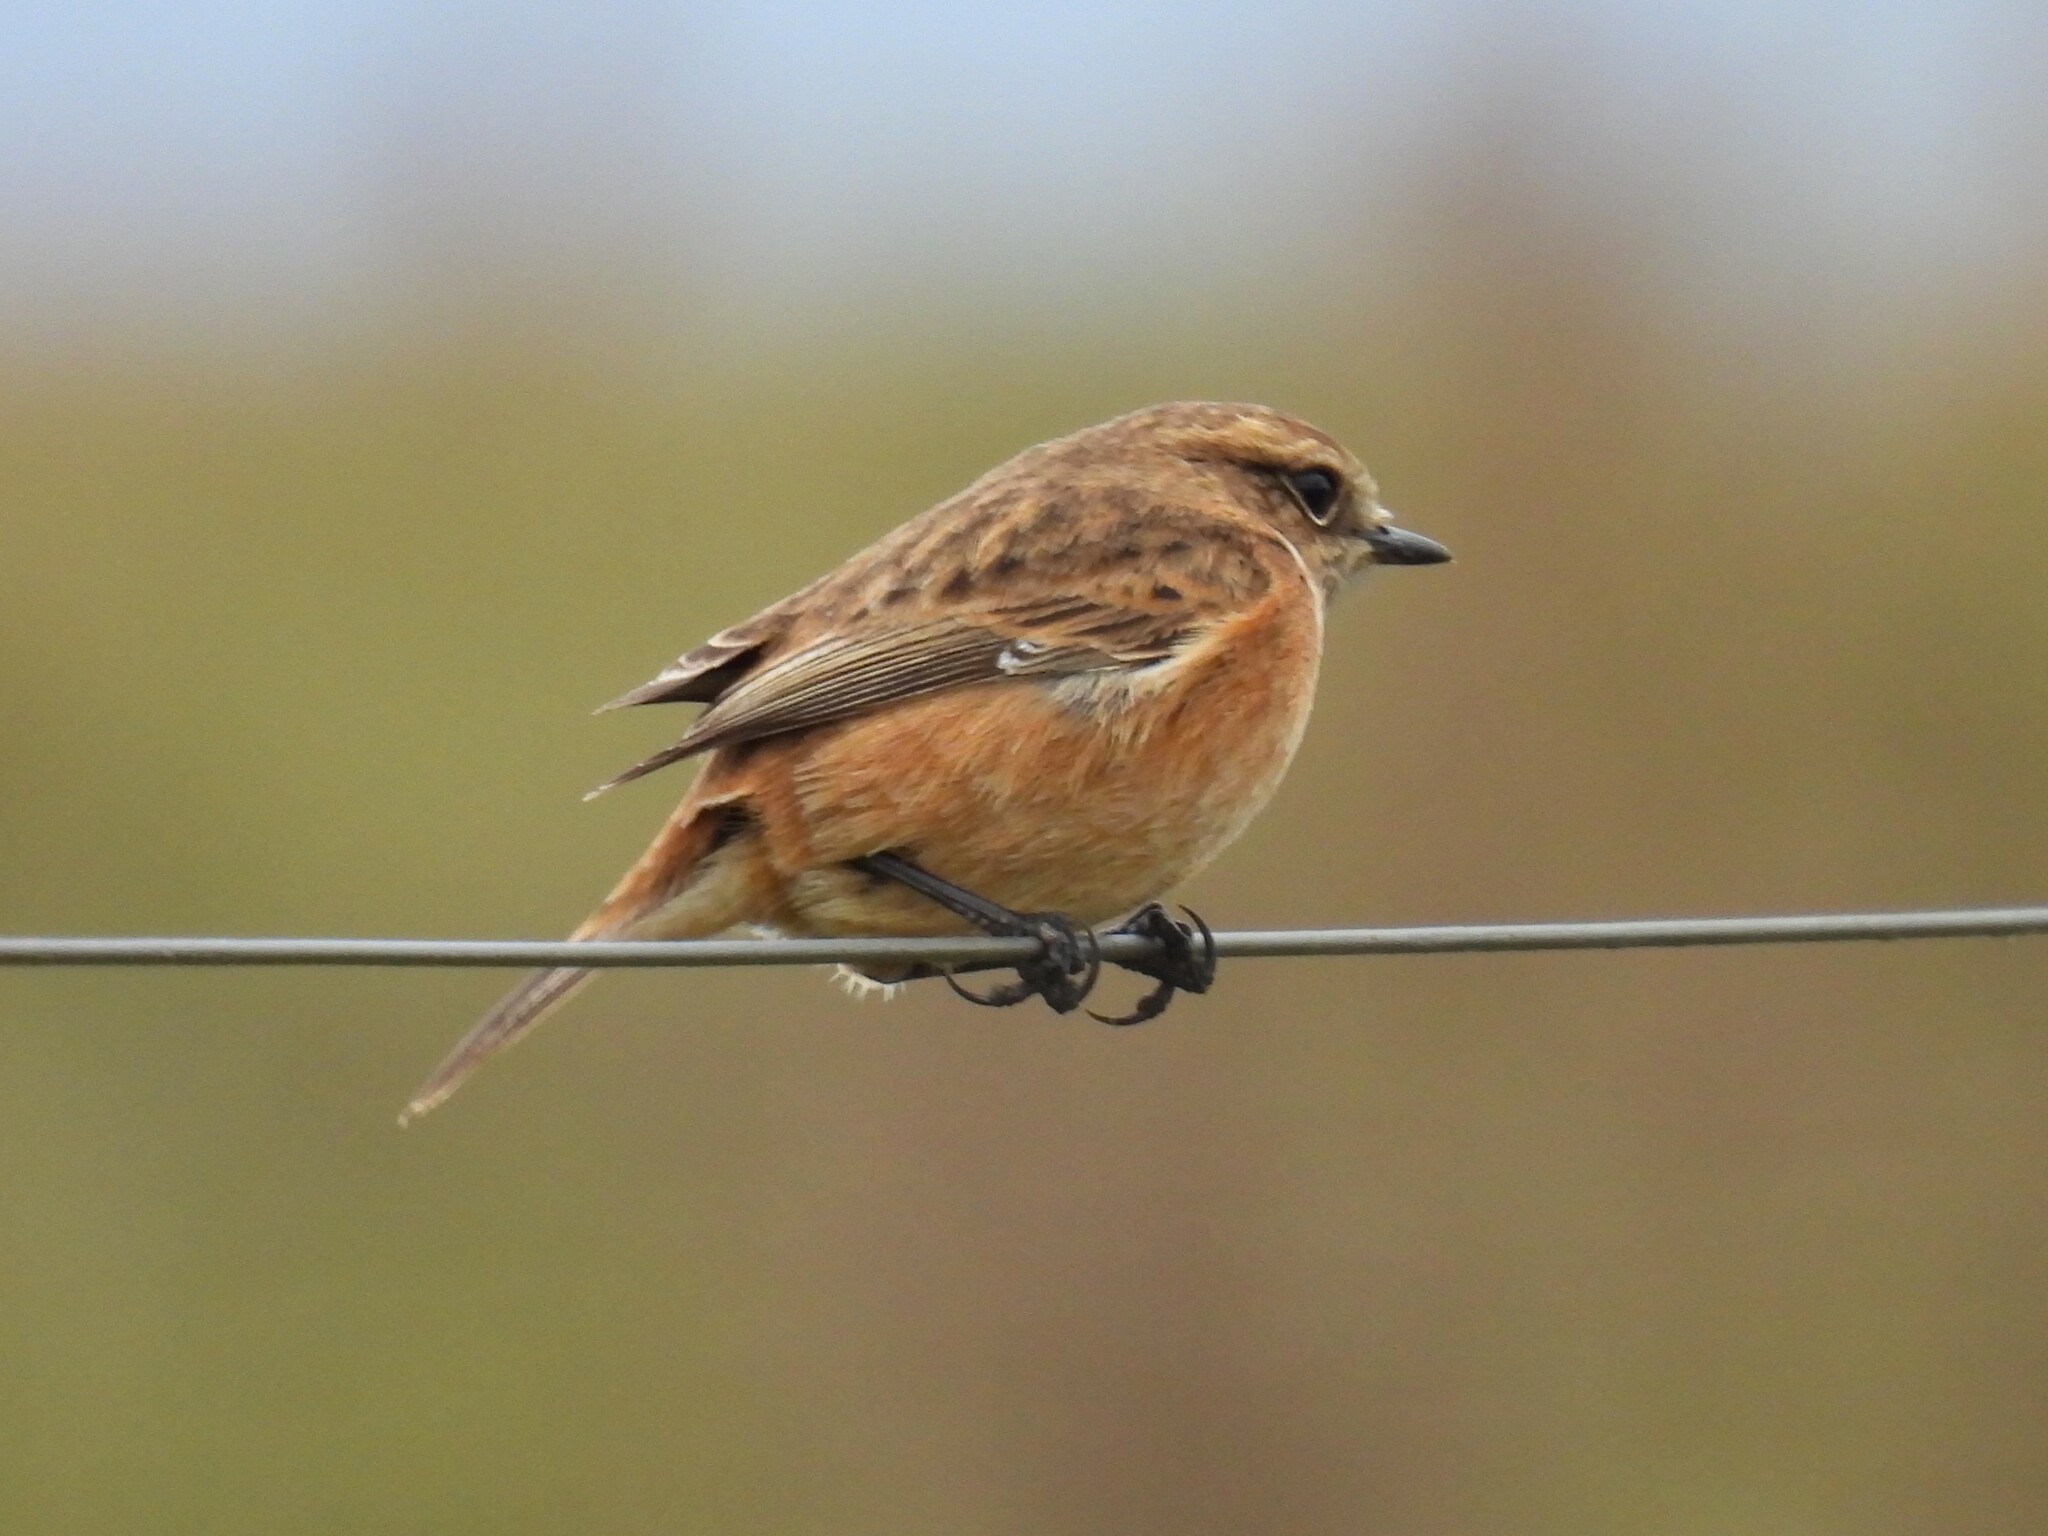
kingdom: Animalia
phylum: Chordata
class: Aves
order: Passeriformes
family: Muscicapidae
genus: Saxicola
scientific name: Saxicola rubicola
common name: European stonechat
